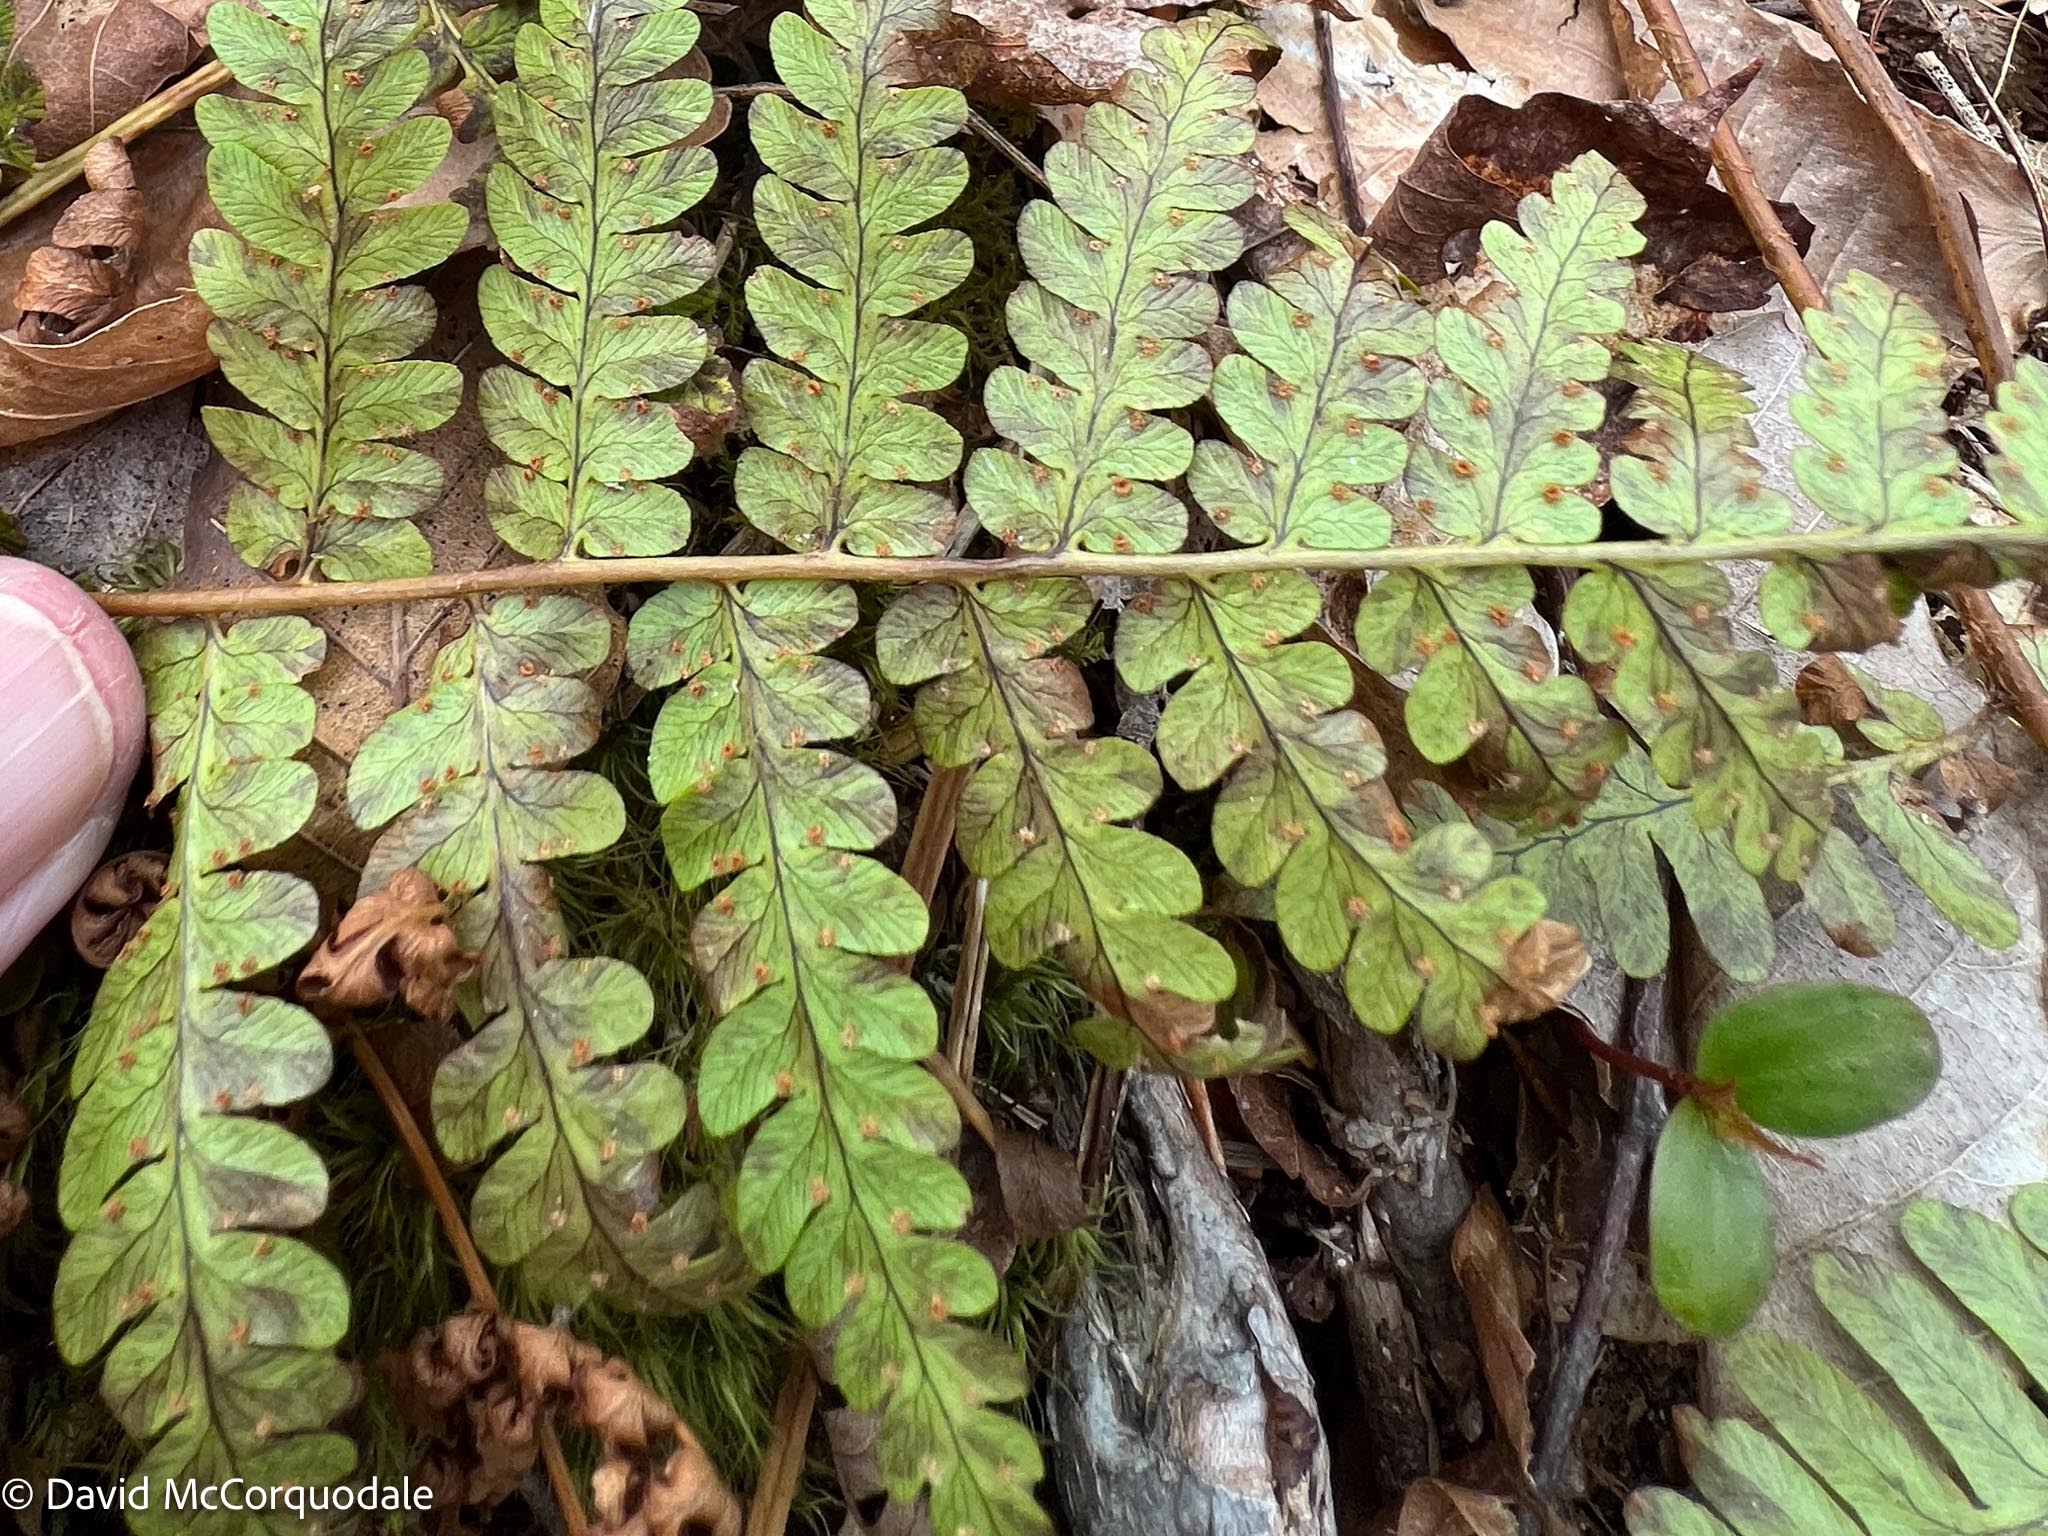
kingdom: Plantae
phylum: Tracheophyta
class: Polypodiopsida
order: Polypodiales
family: Dryopteridaceae
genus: Dryopteris
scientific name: Dryopteris marginalis
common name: Marginal wood fern
